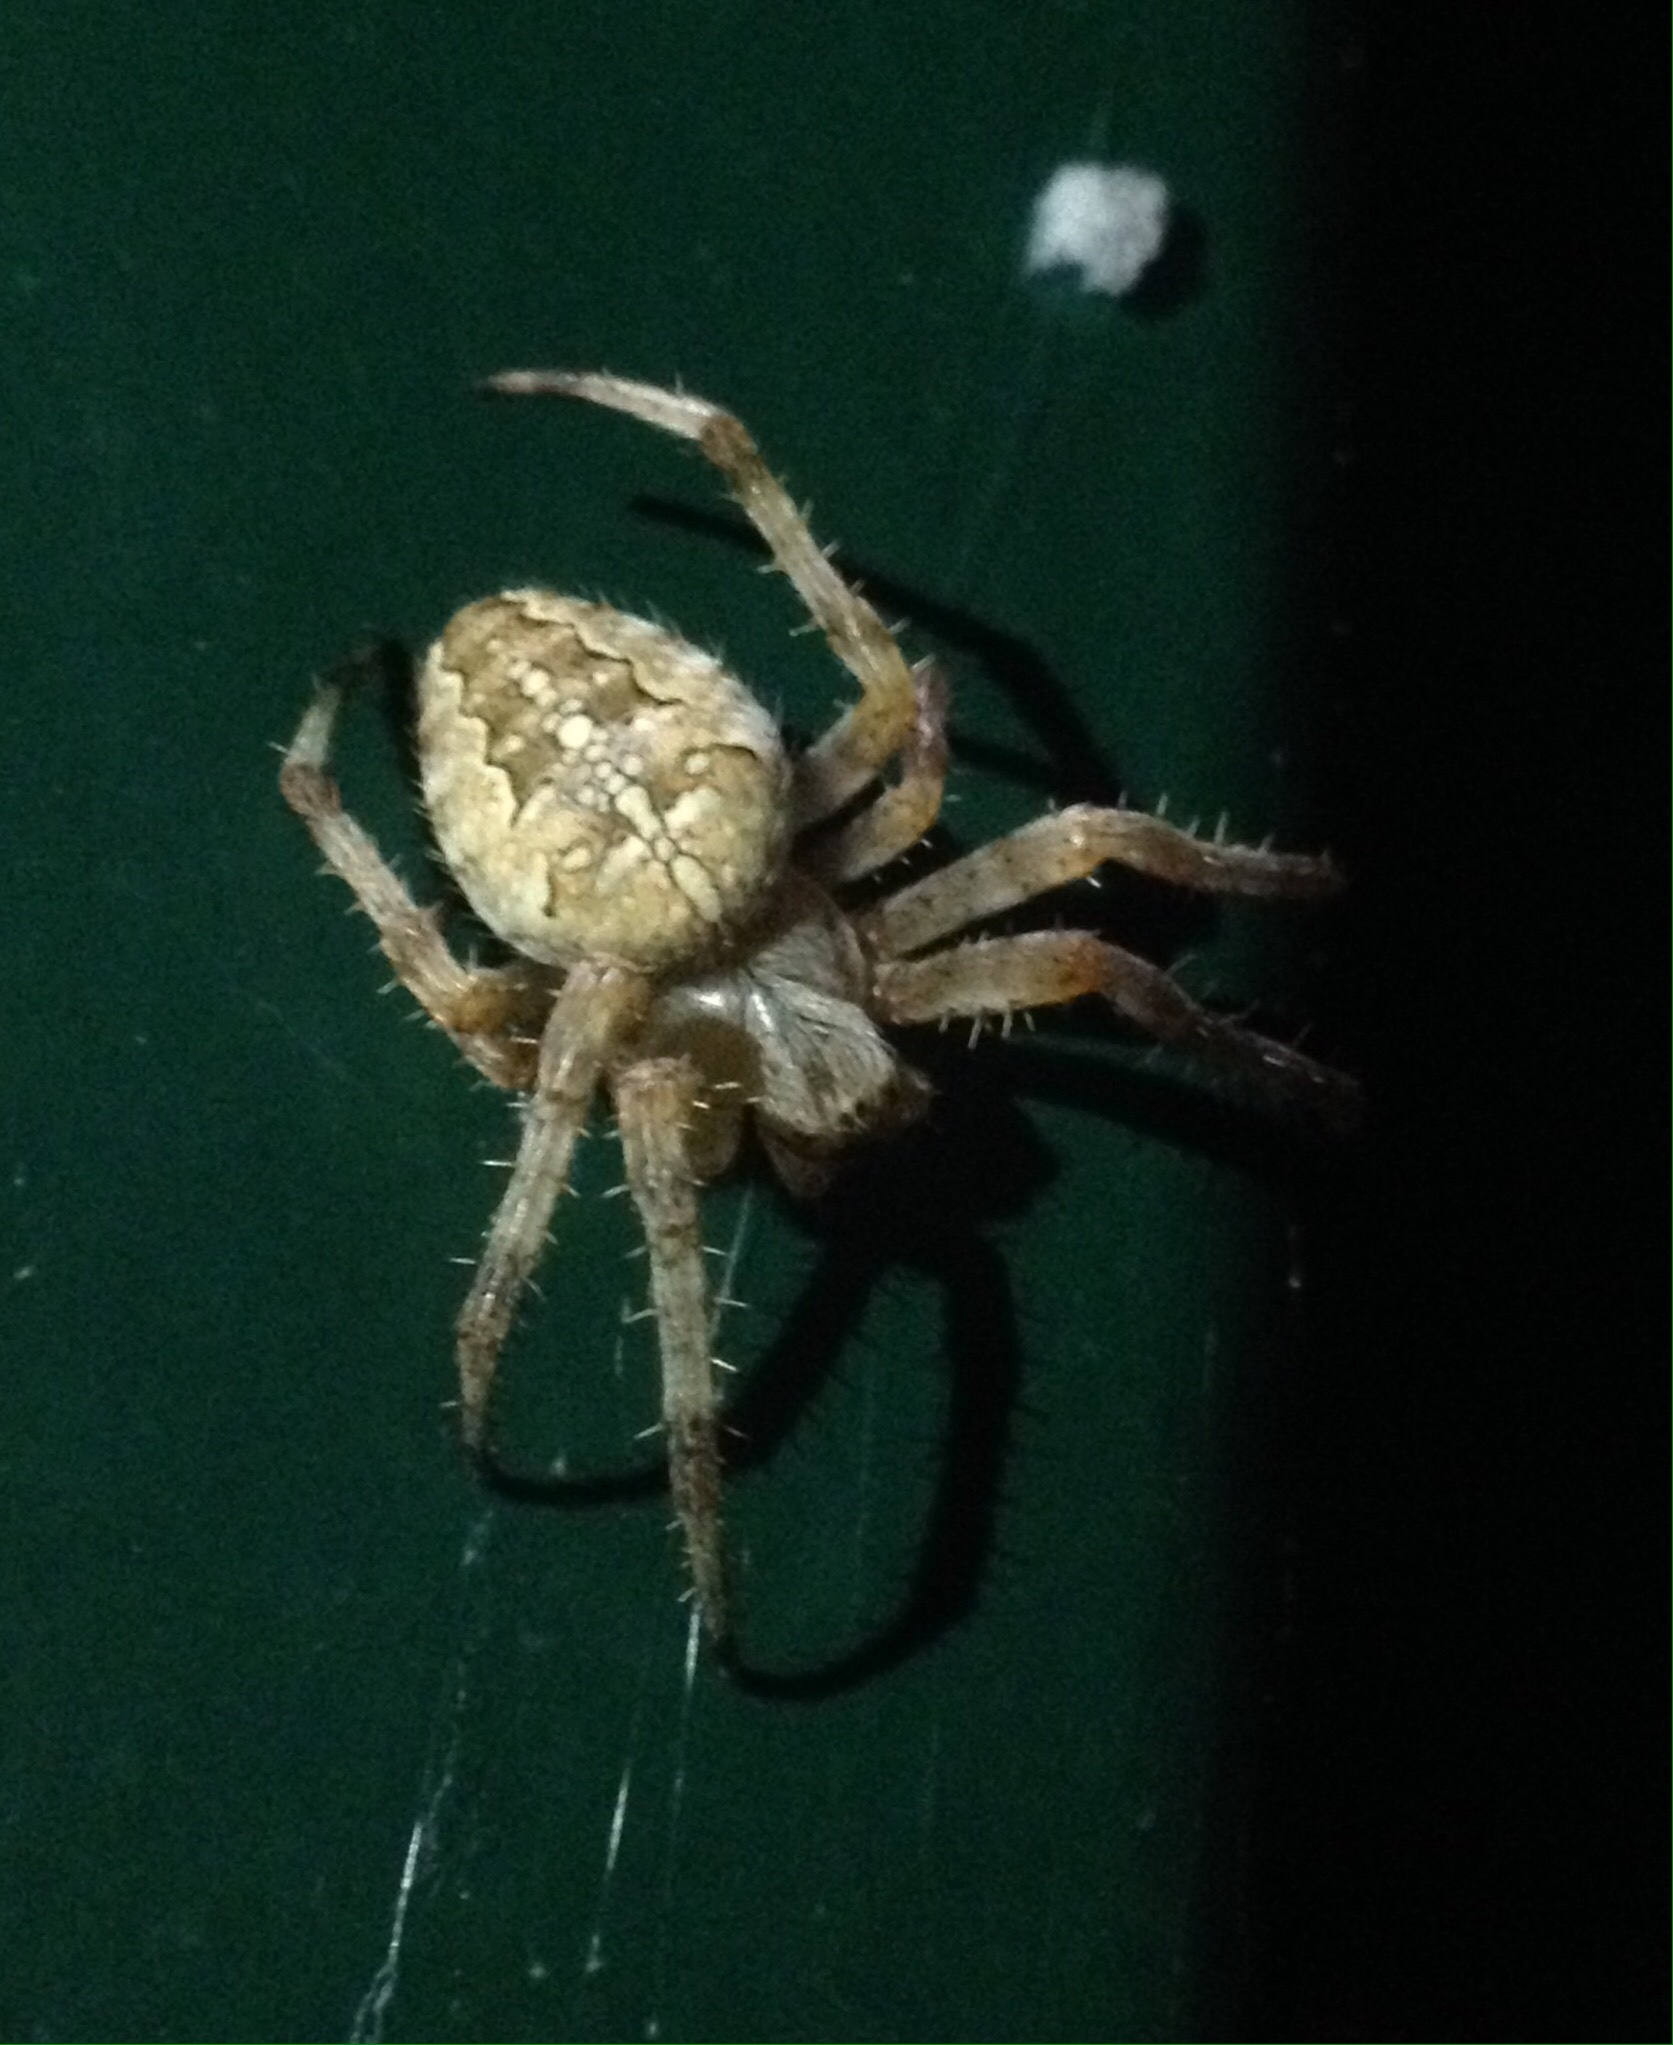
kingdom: Animalia
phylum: Arthropoda
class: Arachnida
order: Araneae
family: Araneidae
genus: Araneus
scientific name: Araneus diadematus
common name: Cross orbweaver
